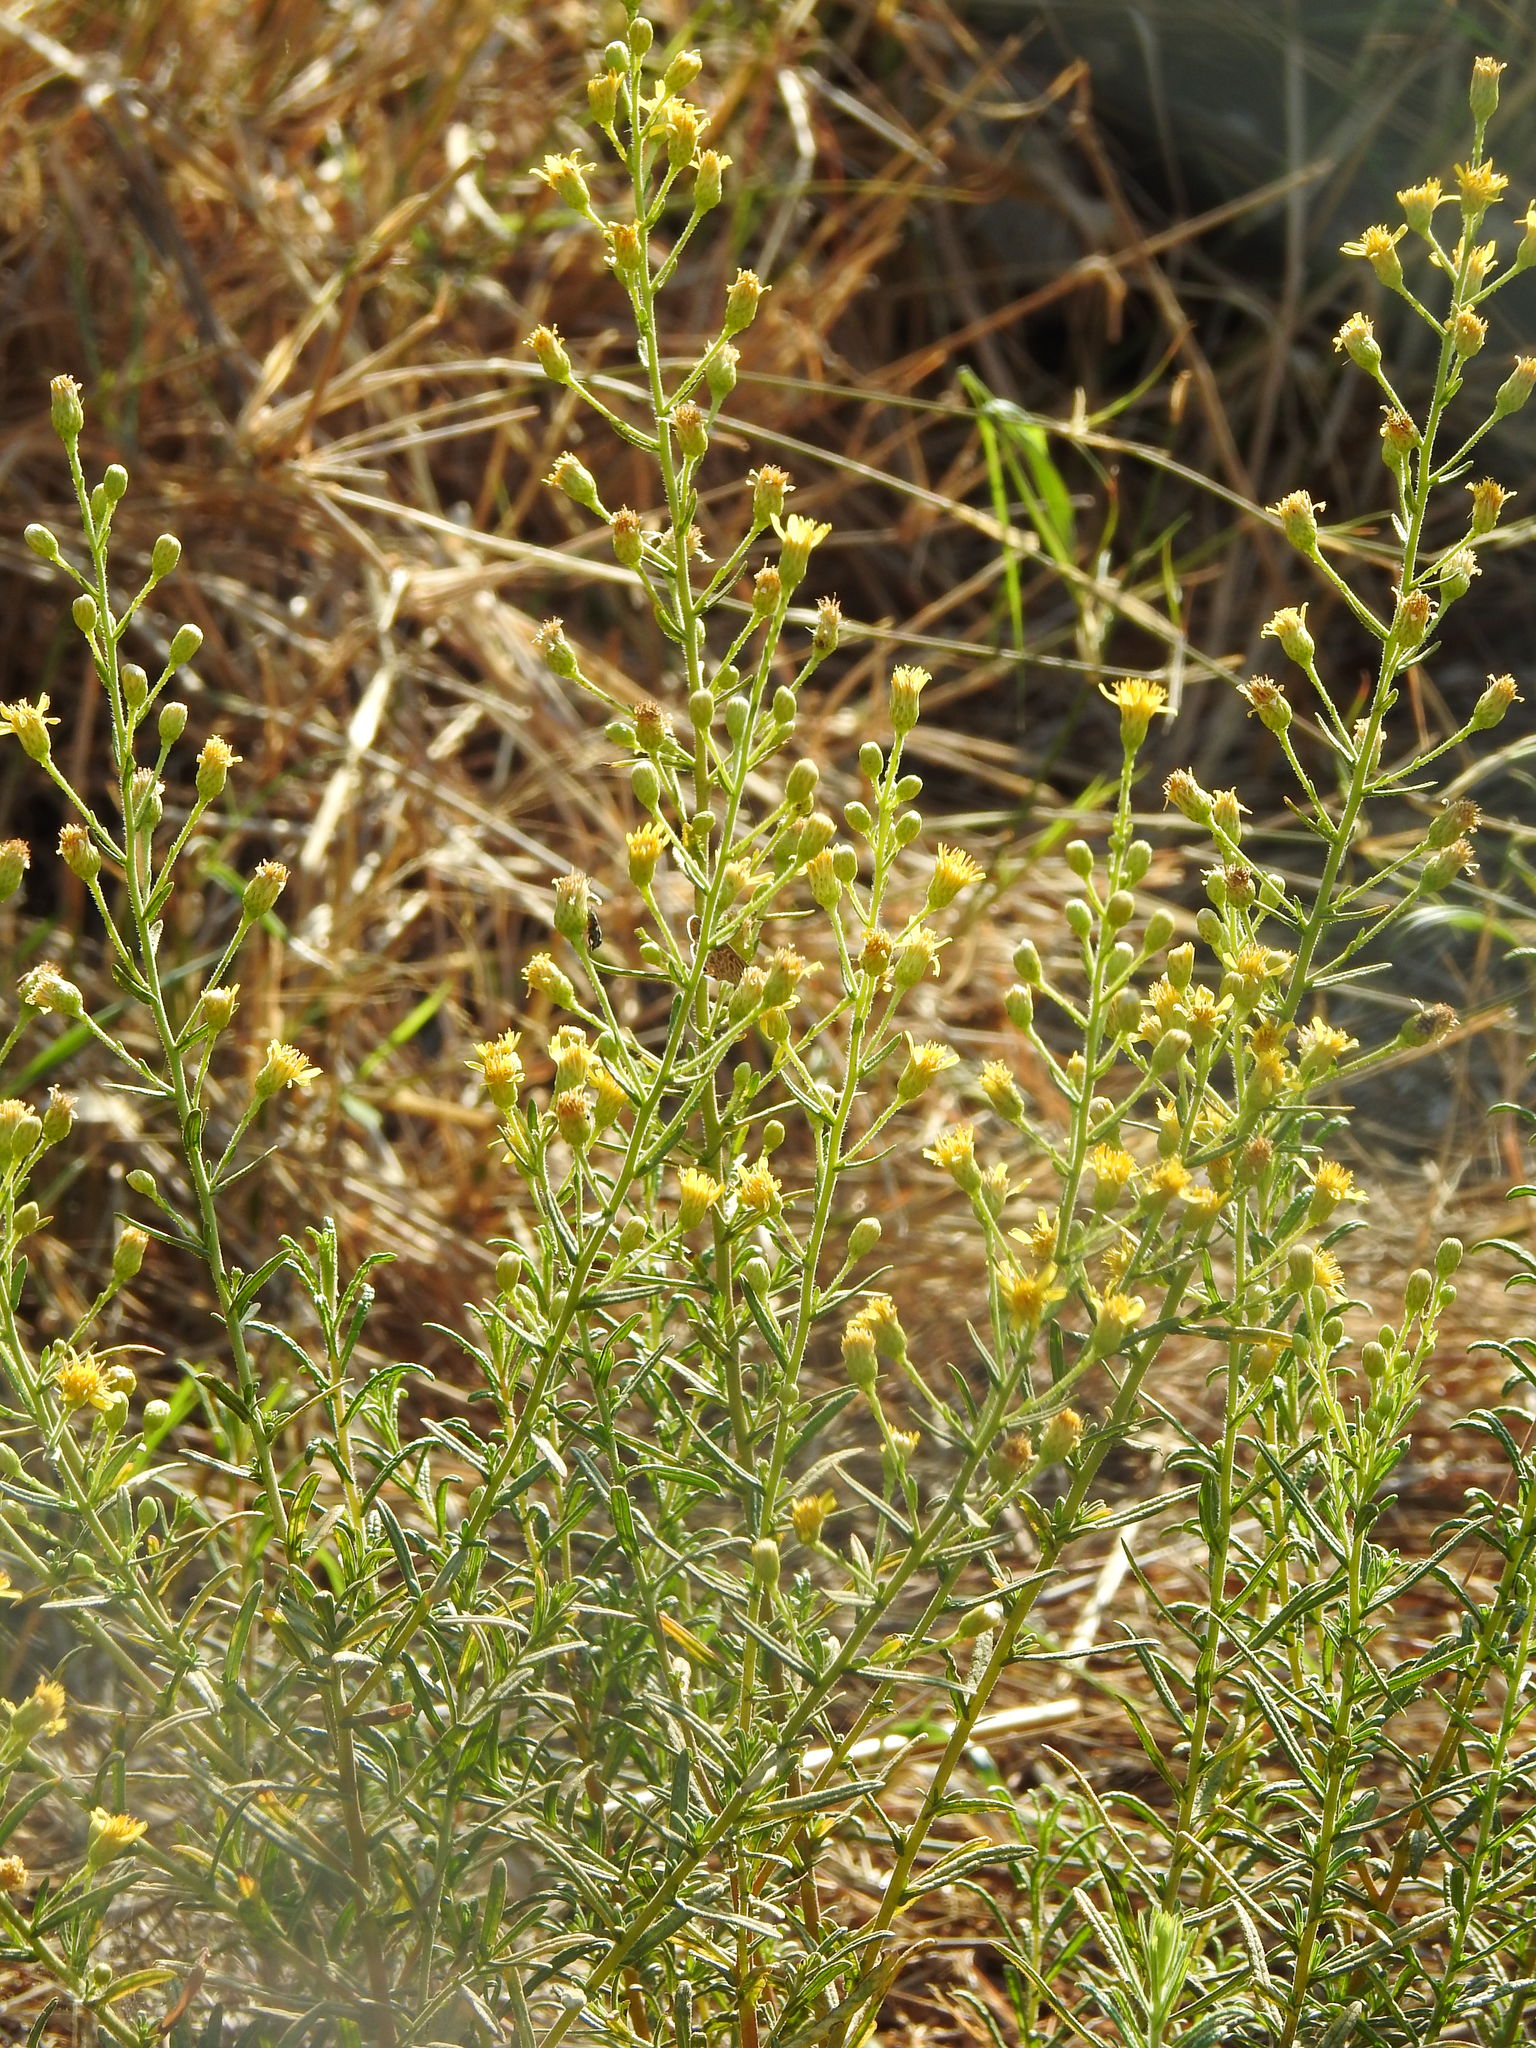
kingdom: Plantae
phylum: Tracheophyta
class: Magnoliopsida
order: Asterales
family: Asteraceae
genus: Dittrichia
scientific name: Dittrichia viscosa
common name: Woody fleabane
